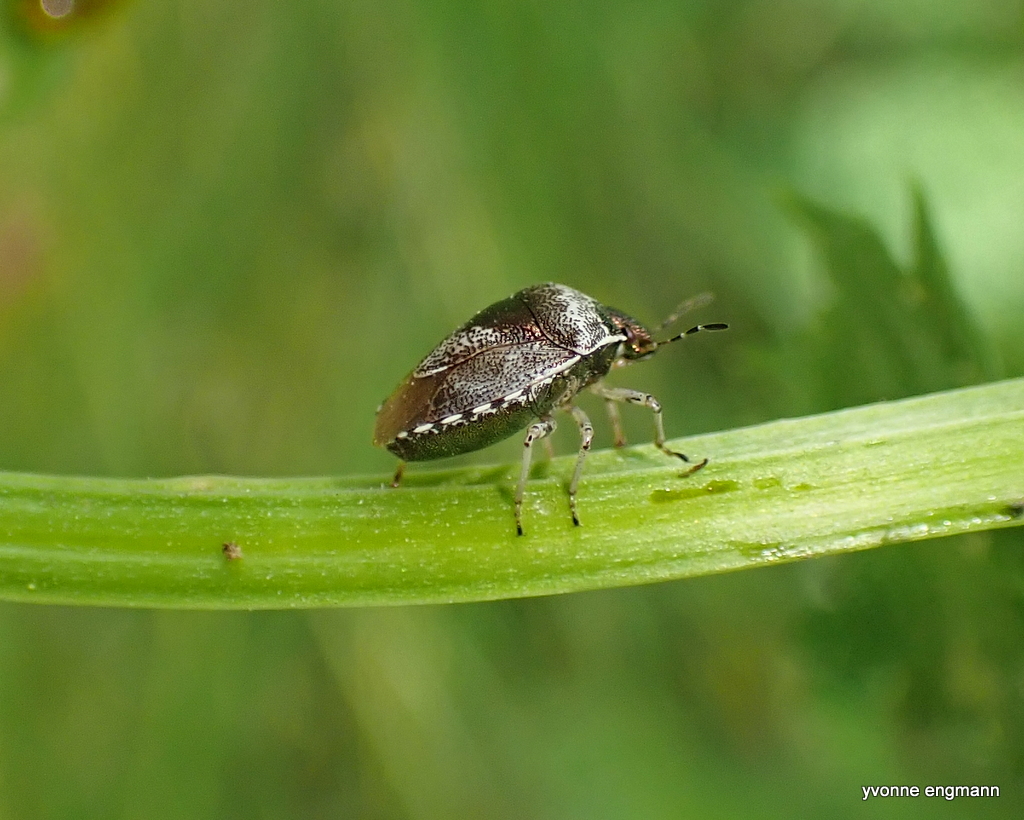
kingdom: Animalia
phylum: Arthropoda
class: Insecta
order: Hemiptera
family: Pentatomidae
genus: Eysarcoris
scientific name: Eysarcoris venustissimus
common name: Woundwort shieldbug
